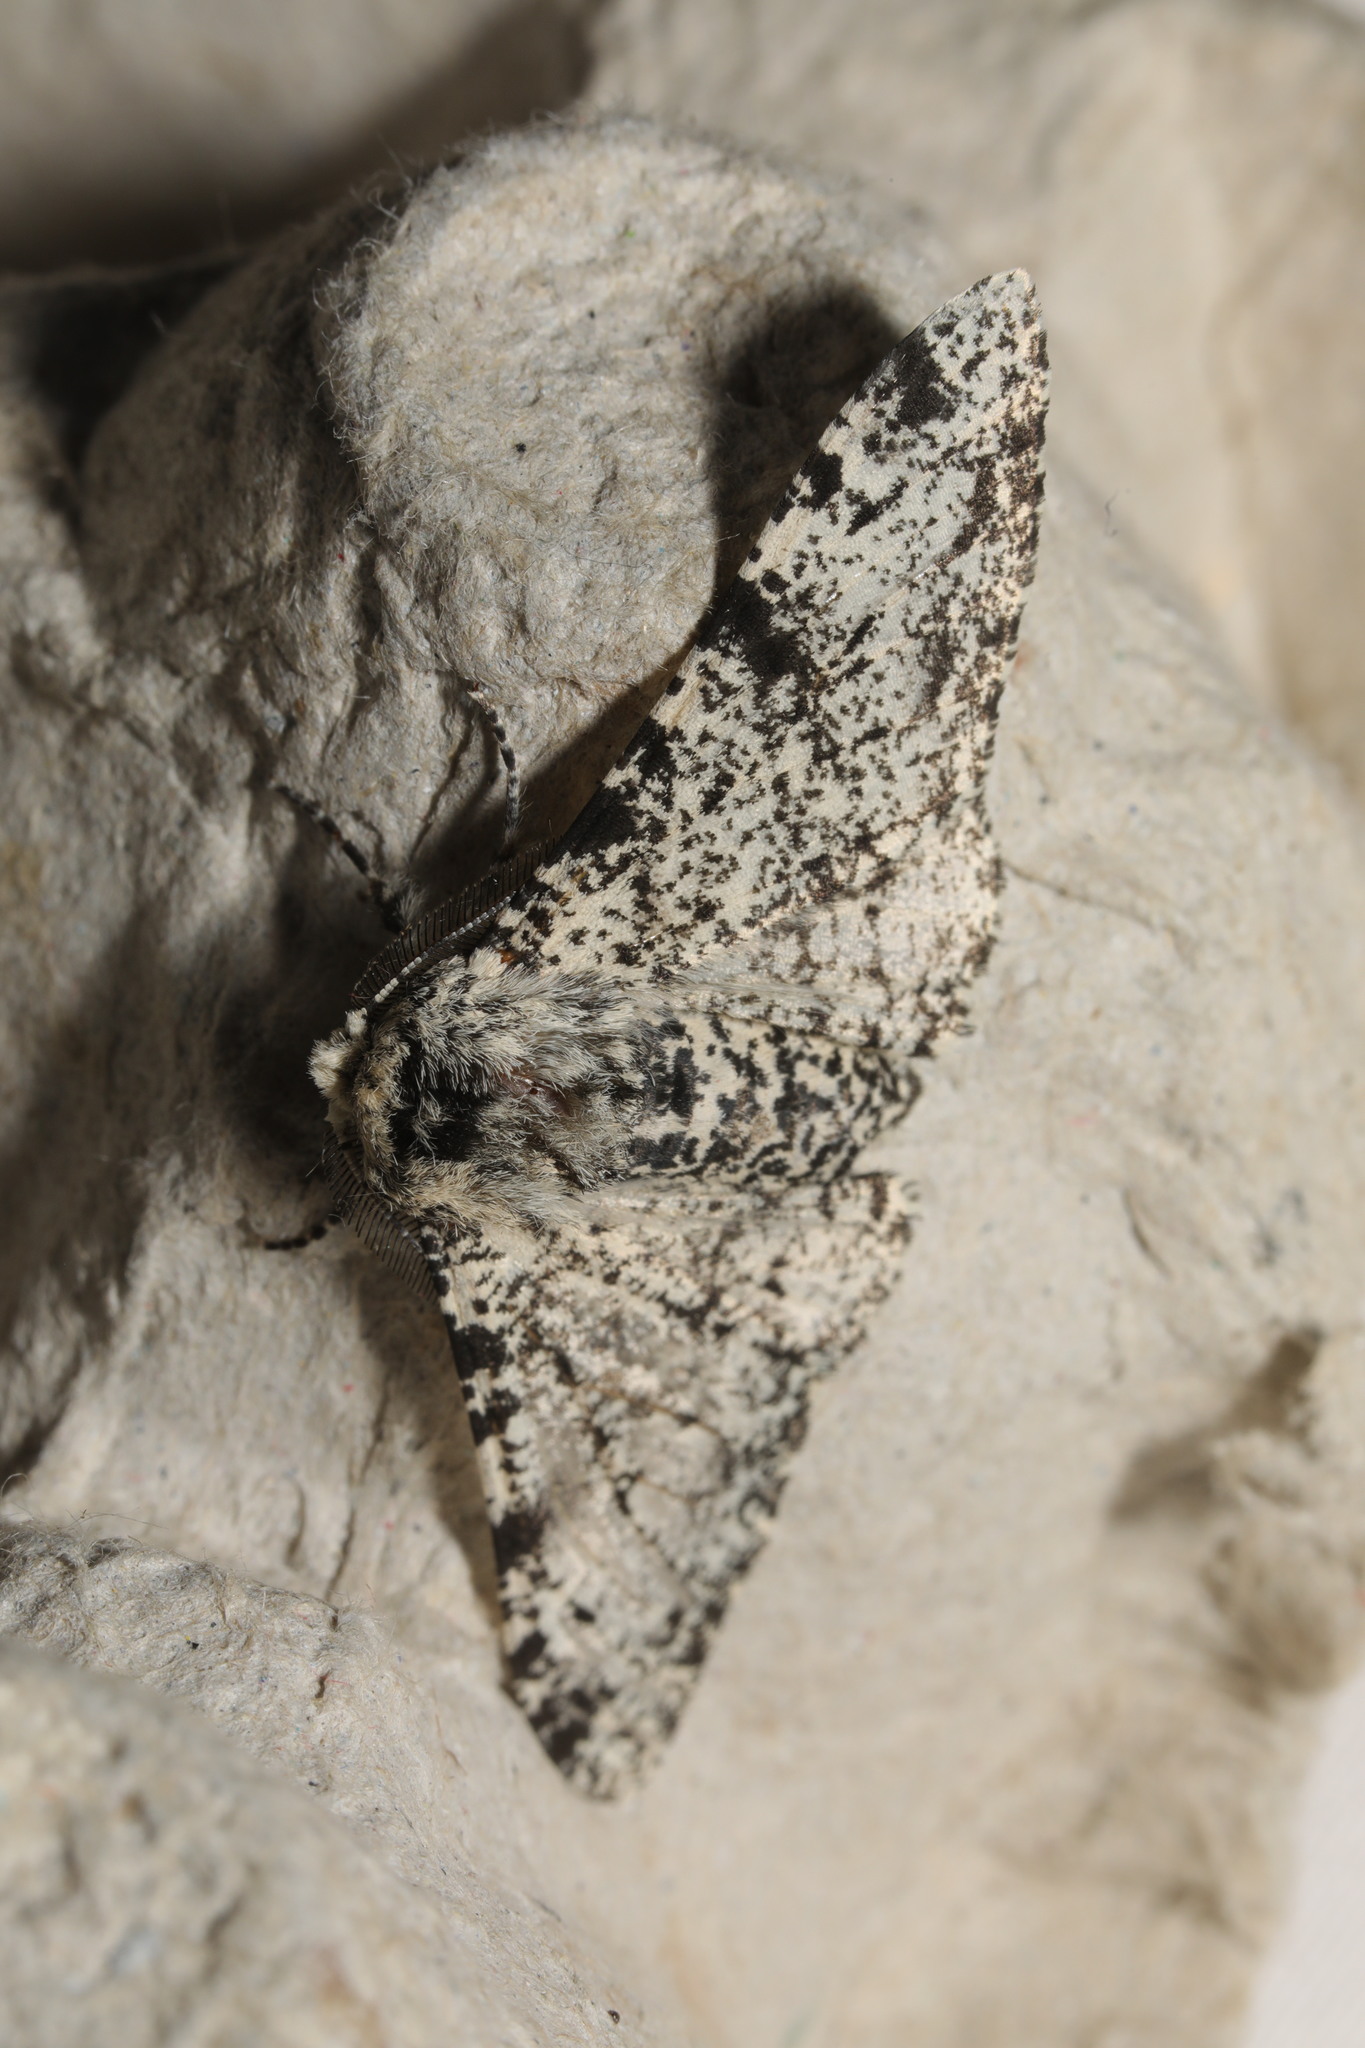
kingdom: Animalia
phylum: Arthropoda
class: Insecta
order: Lepidoptera
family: Geometridae
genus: Biston
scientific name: Biston betularia
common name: Peppered moth
